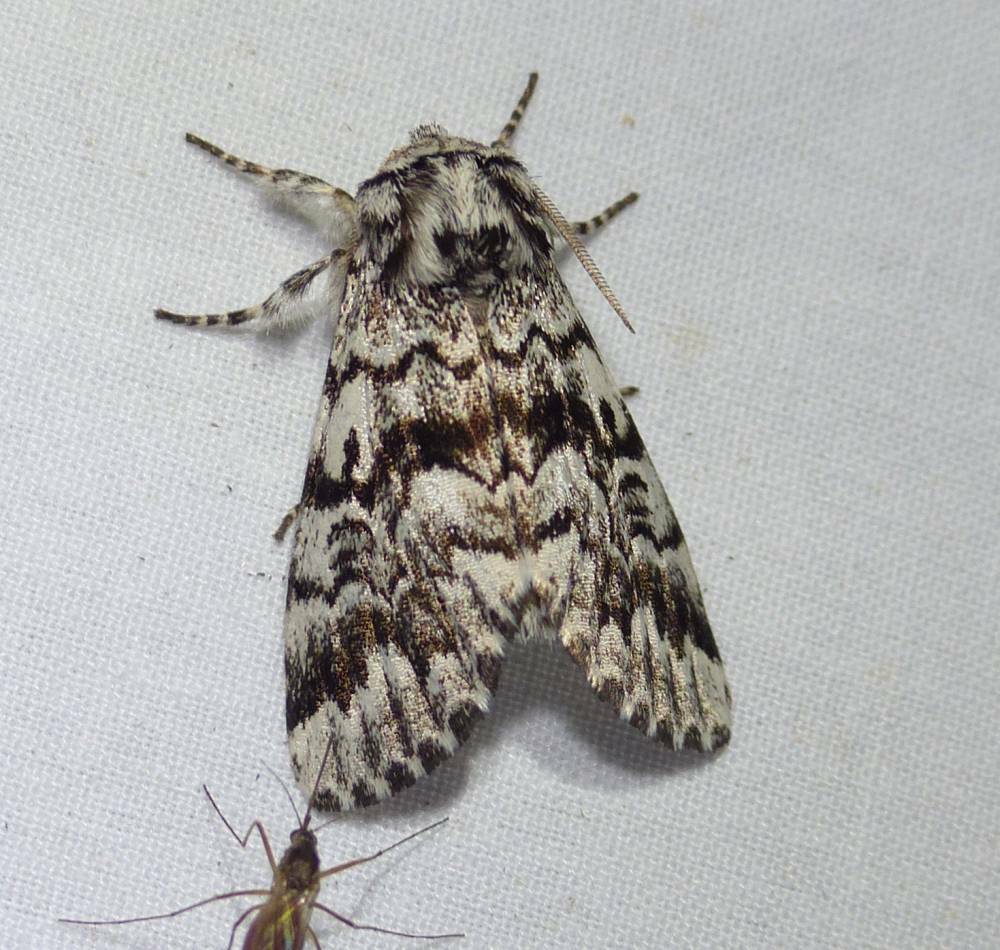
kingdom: Animalia
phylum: Arthropoda
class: Insecta
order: Lepidoptera
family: Noctuidae
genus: Panthea
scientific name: Panthea acronyctoides
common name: Black zigzag moth
